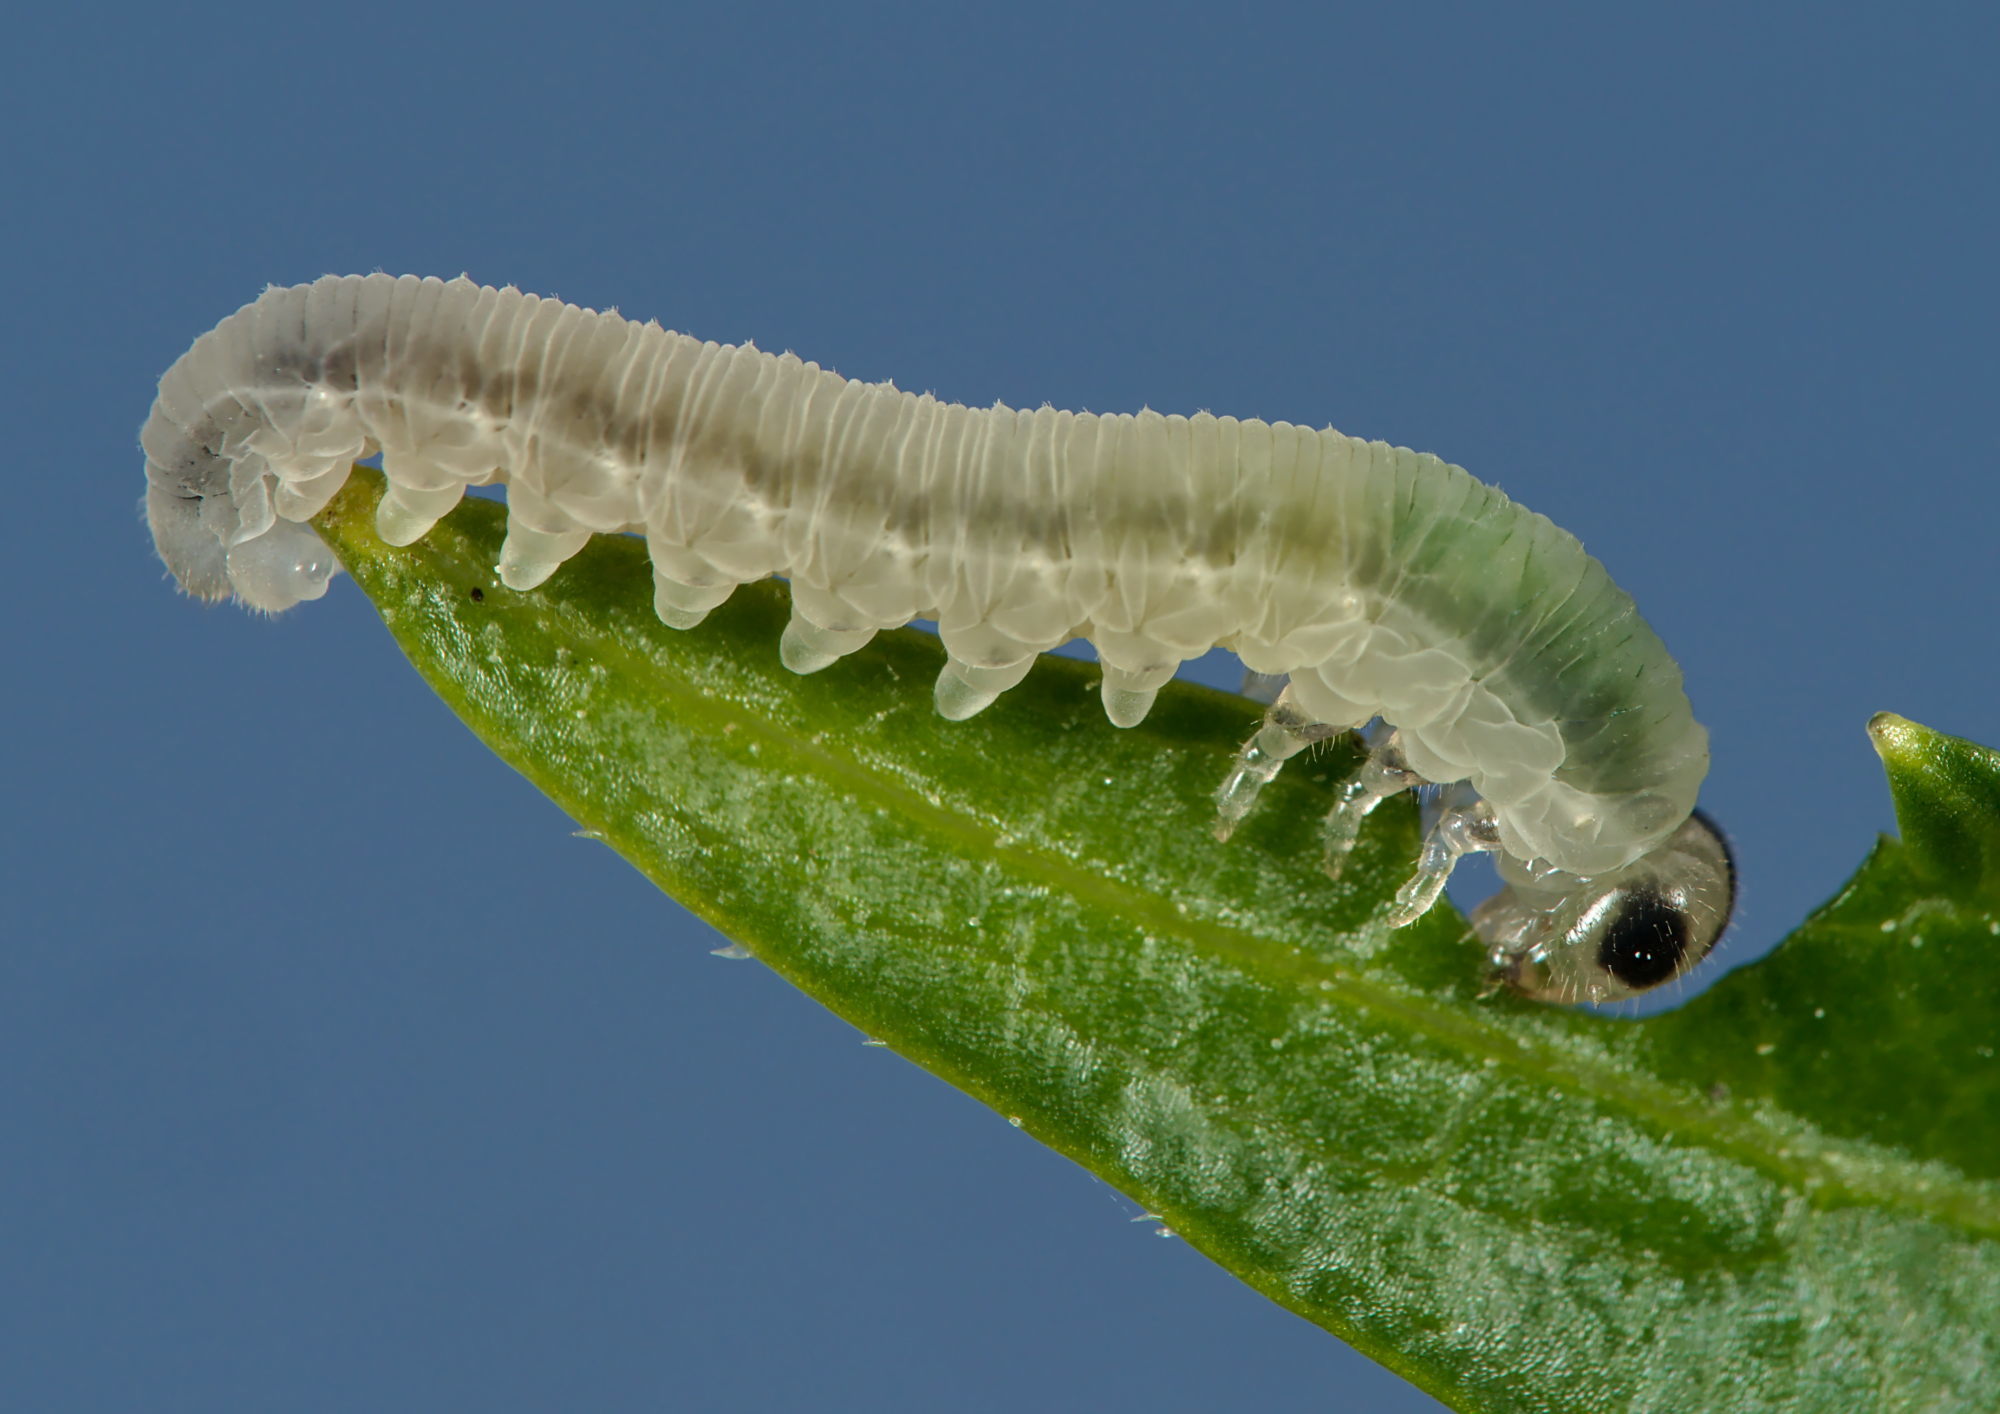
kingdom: Animalia
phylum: Arthropoda
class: Insecta
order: Hymenoptera
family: Tenthredinidae
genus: Macrophya
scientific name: Macrophya alboannulata
